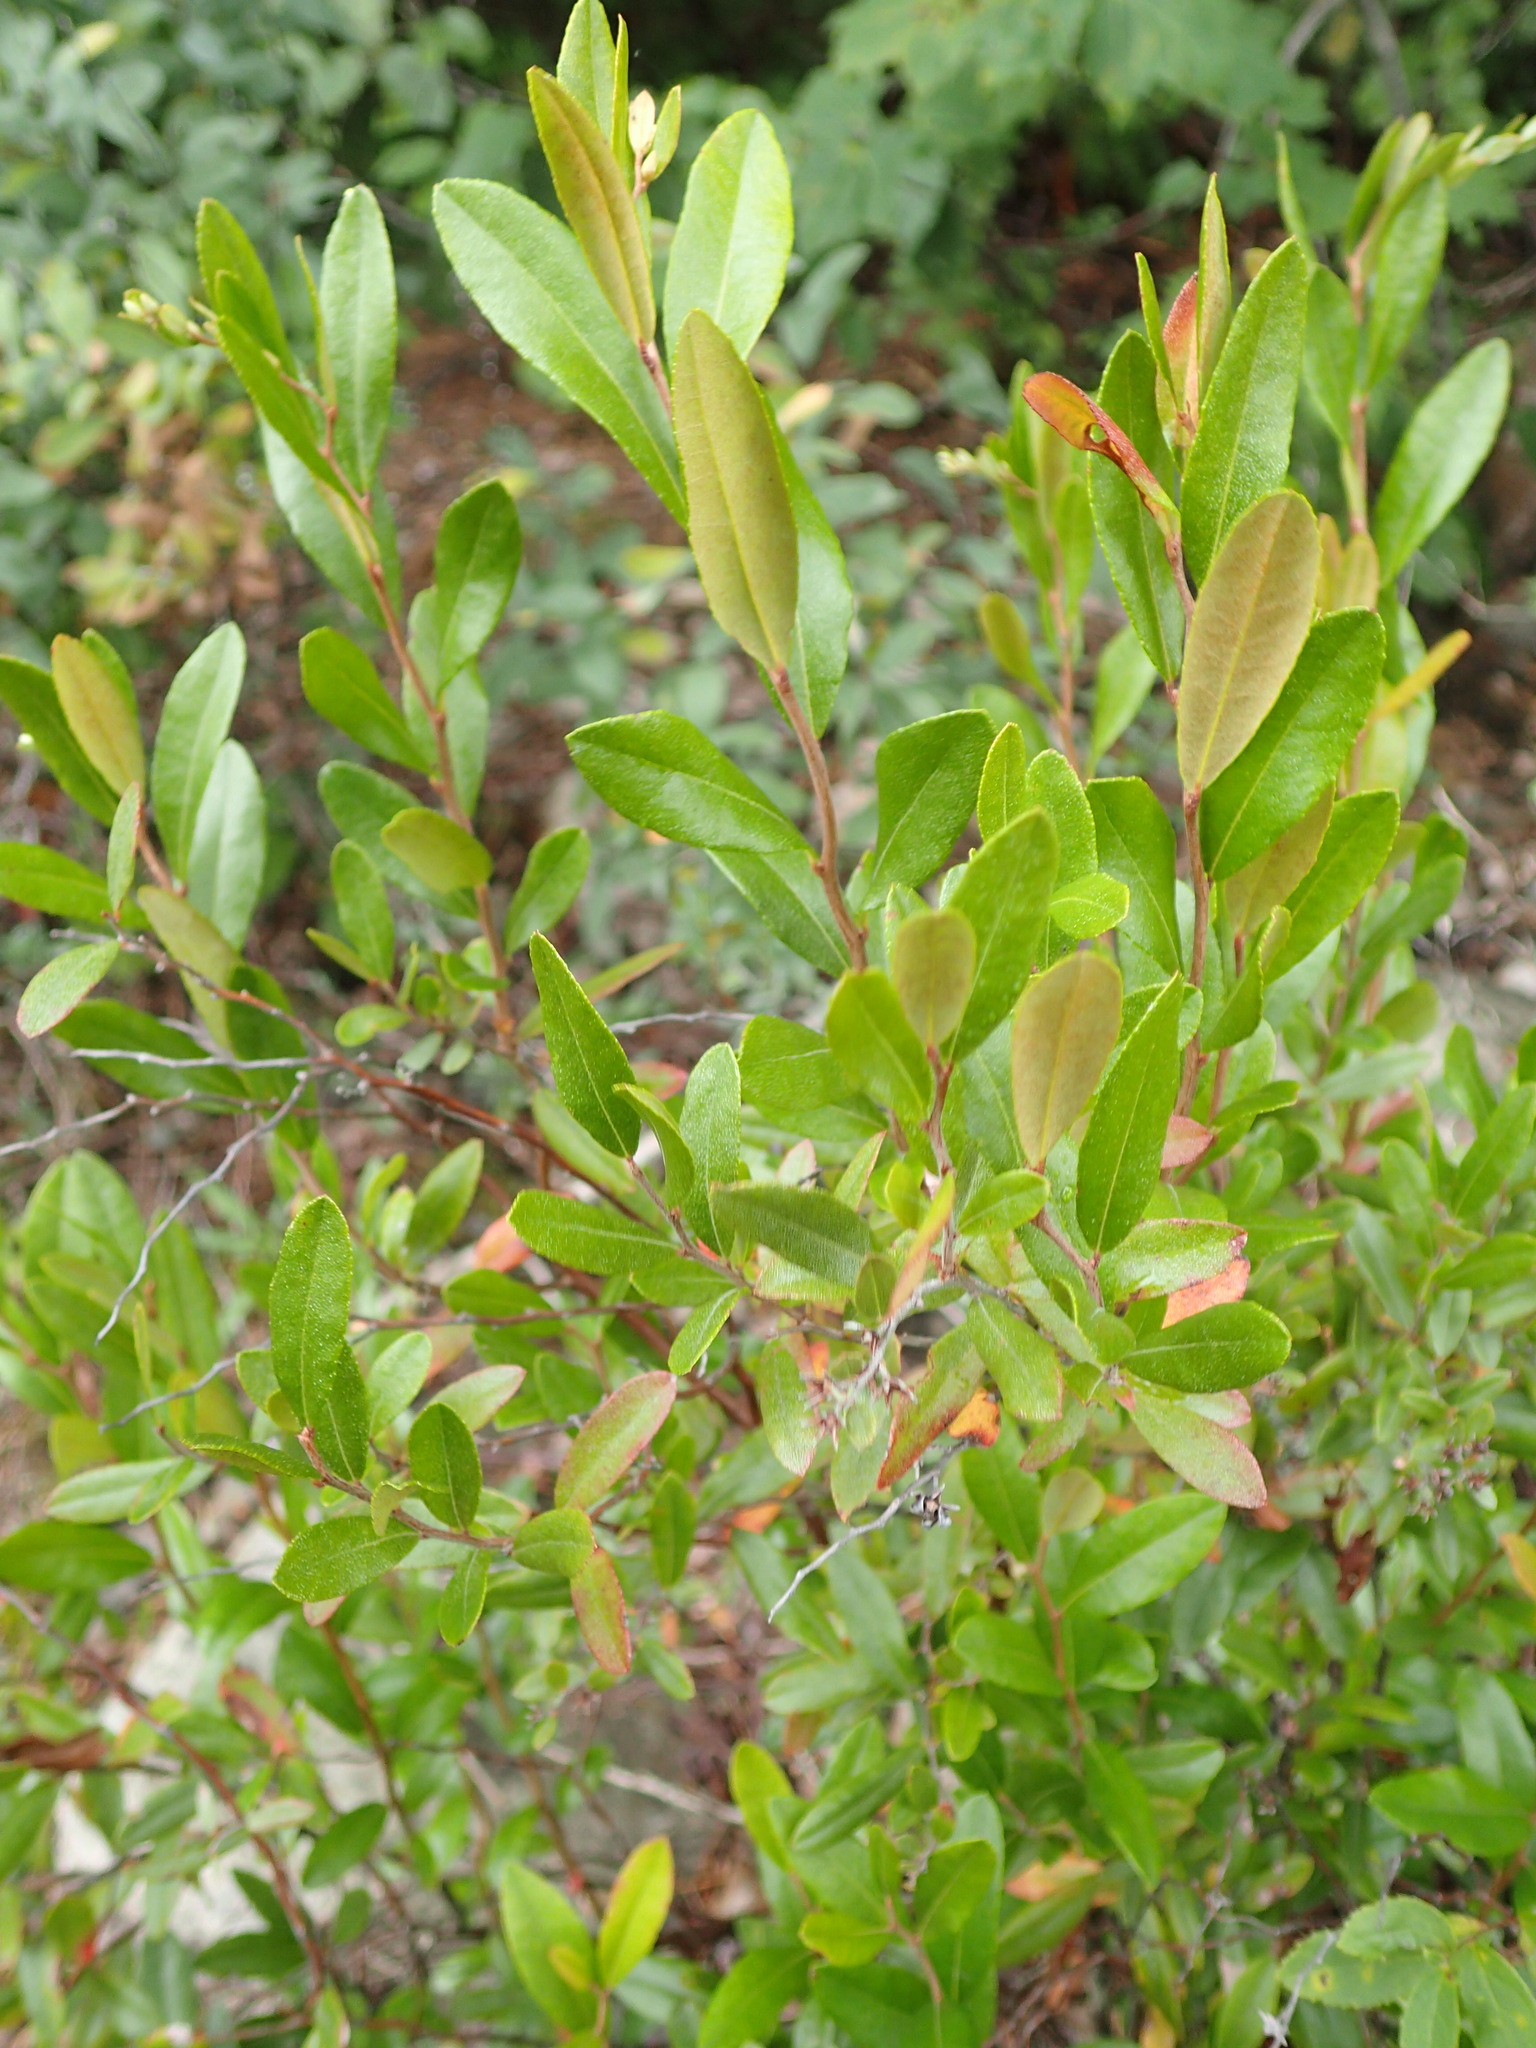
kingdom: Plantae
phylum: Tracheophyta
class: Magnoliopsida
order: Ericales
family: Ericaceae
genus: Chamaedaphne
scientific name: Chamaedaphne calyculata
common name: Leatherleaf
